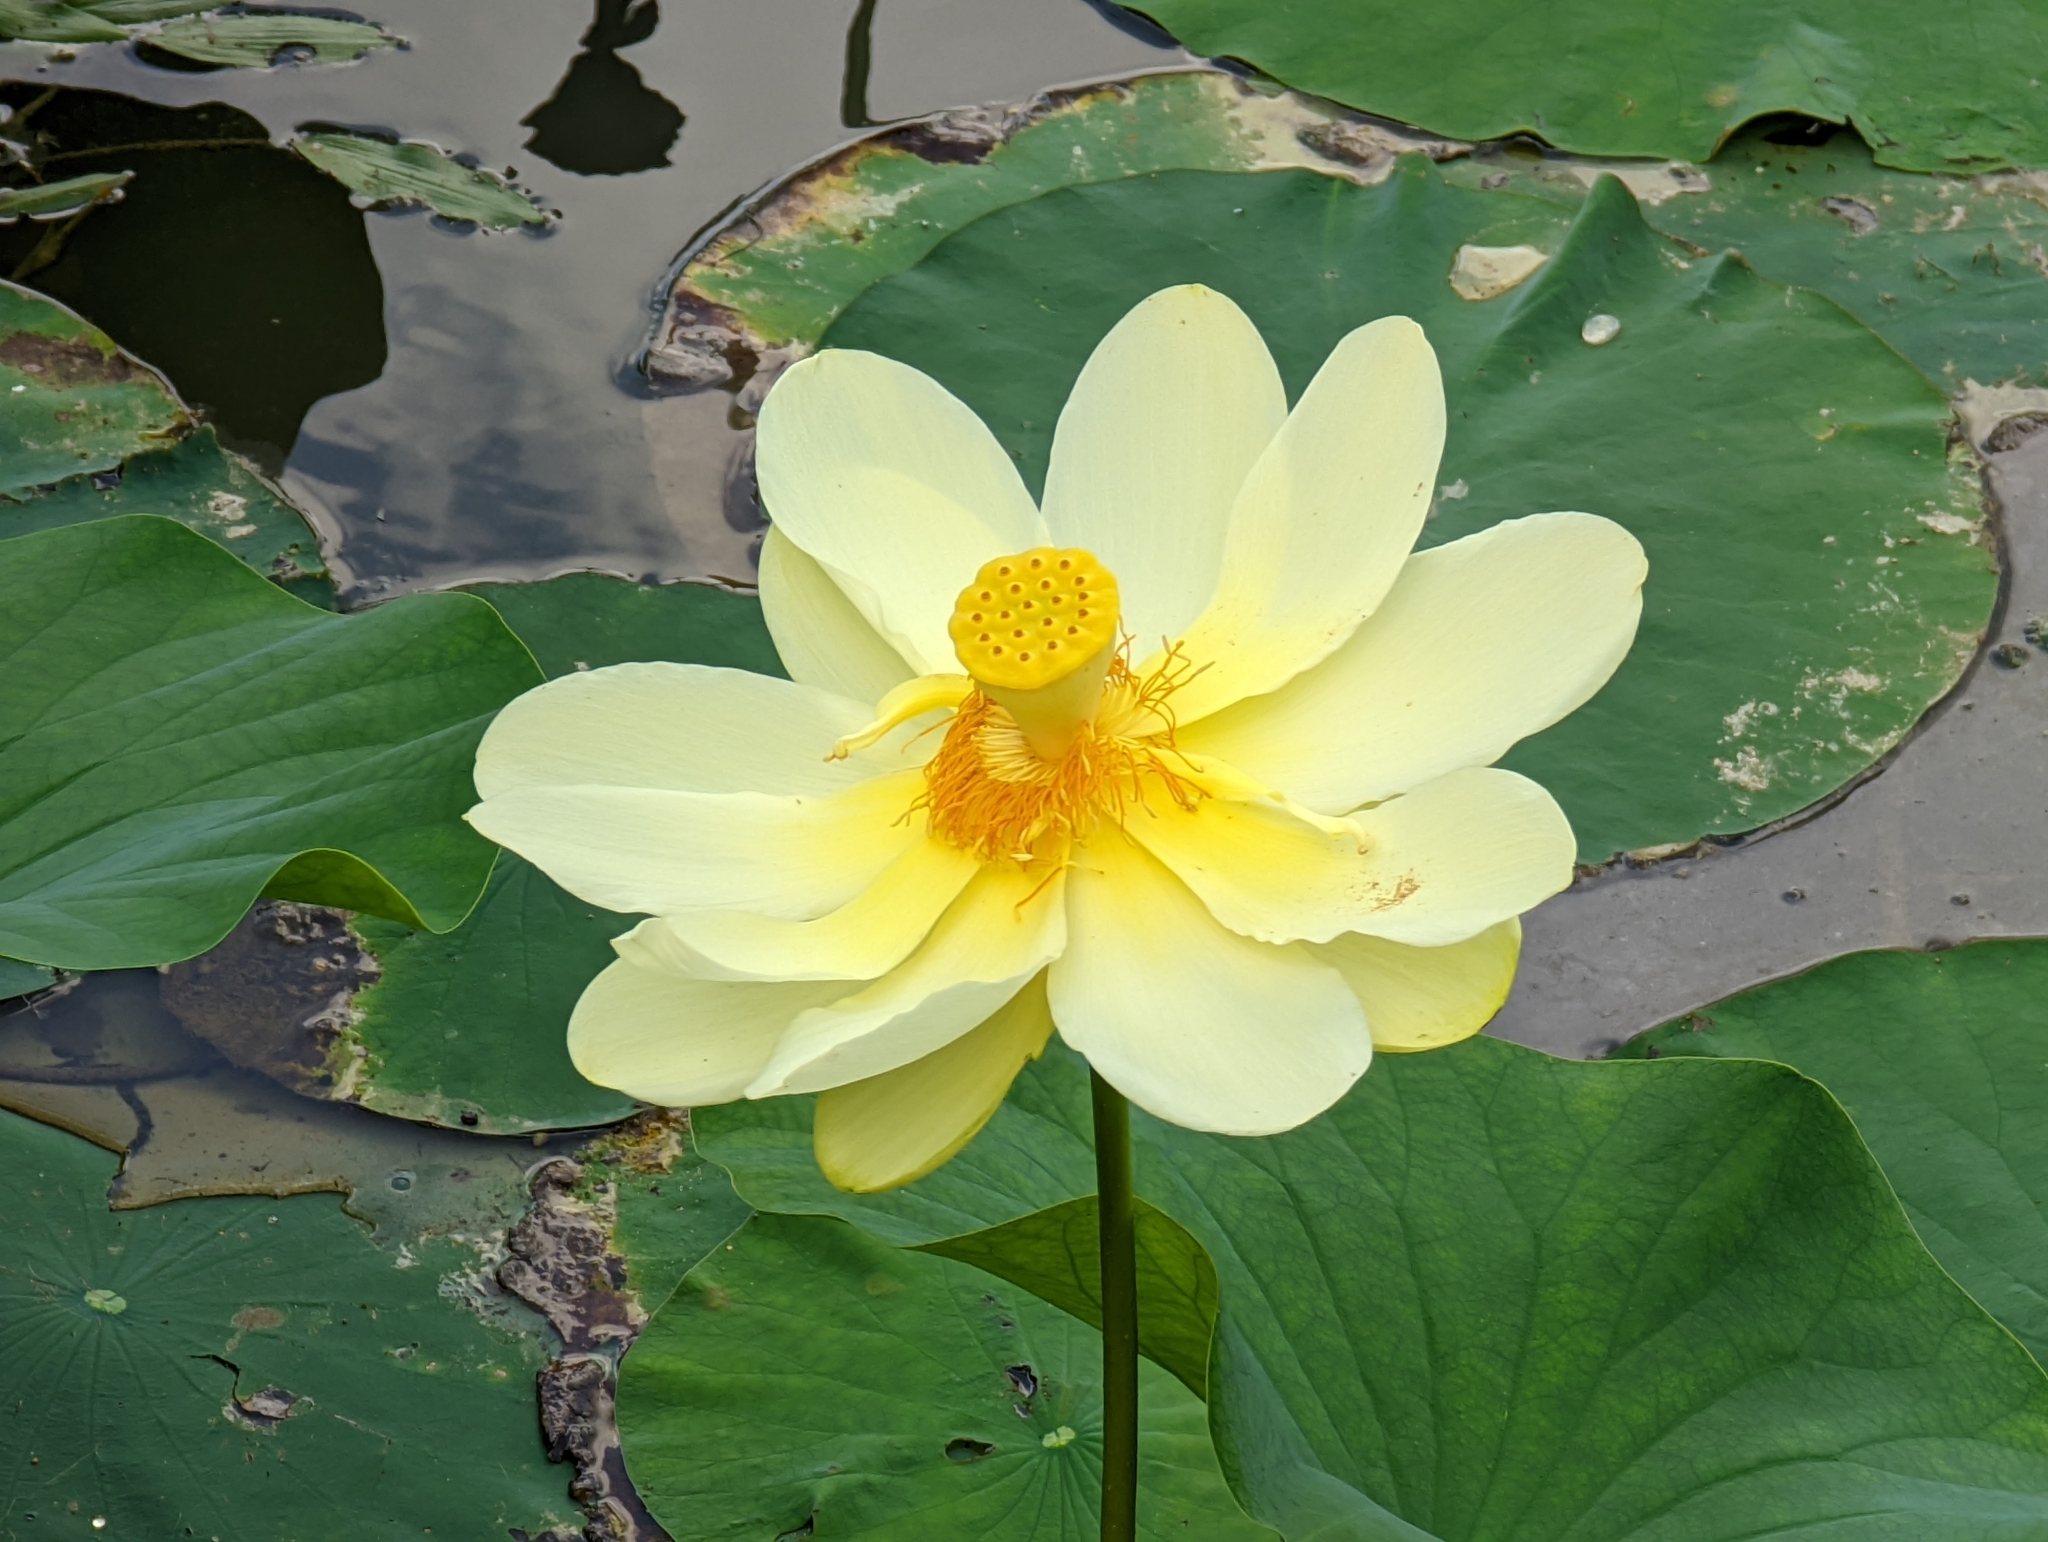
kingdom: Plantae
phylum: Tracheophyta
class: Magnoliopsida
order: Proteales
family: Nelumbonaceae
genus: Nelumbo
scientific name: Nelumbo lutea
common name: American lotus
